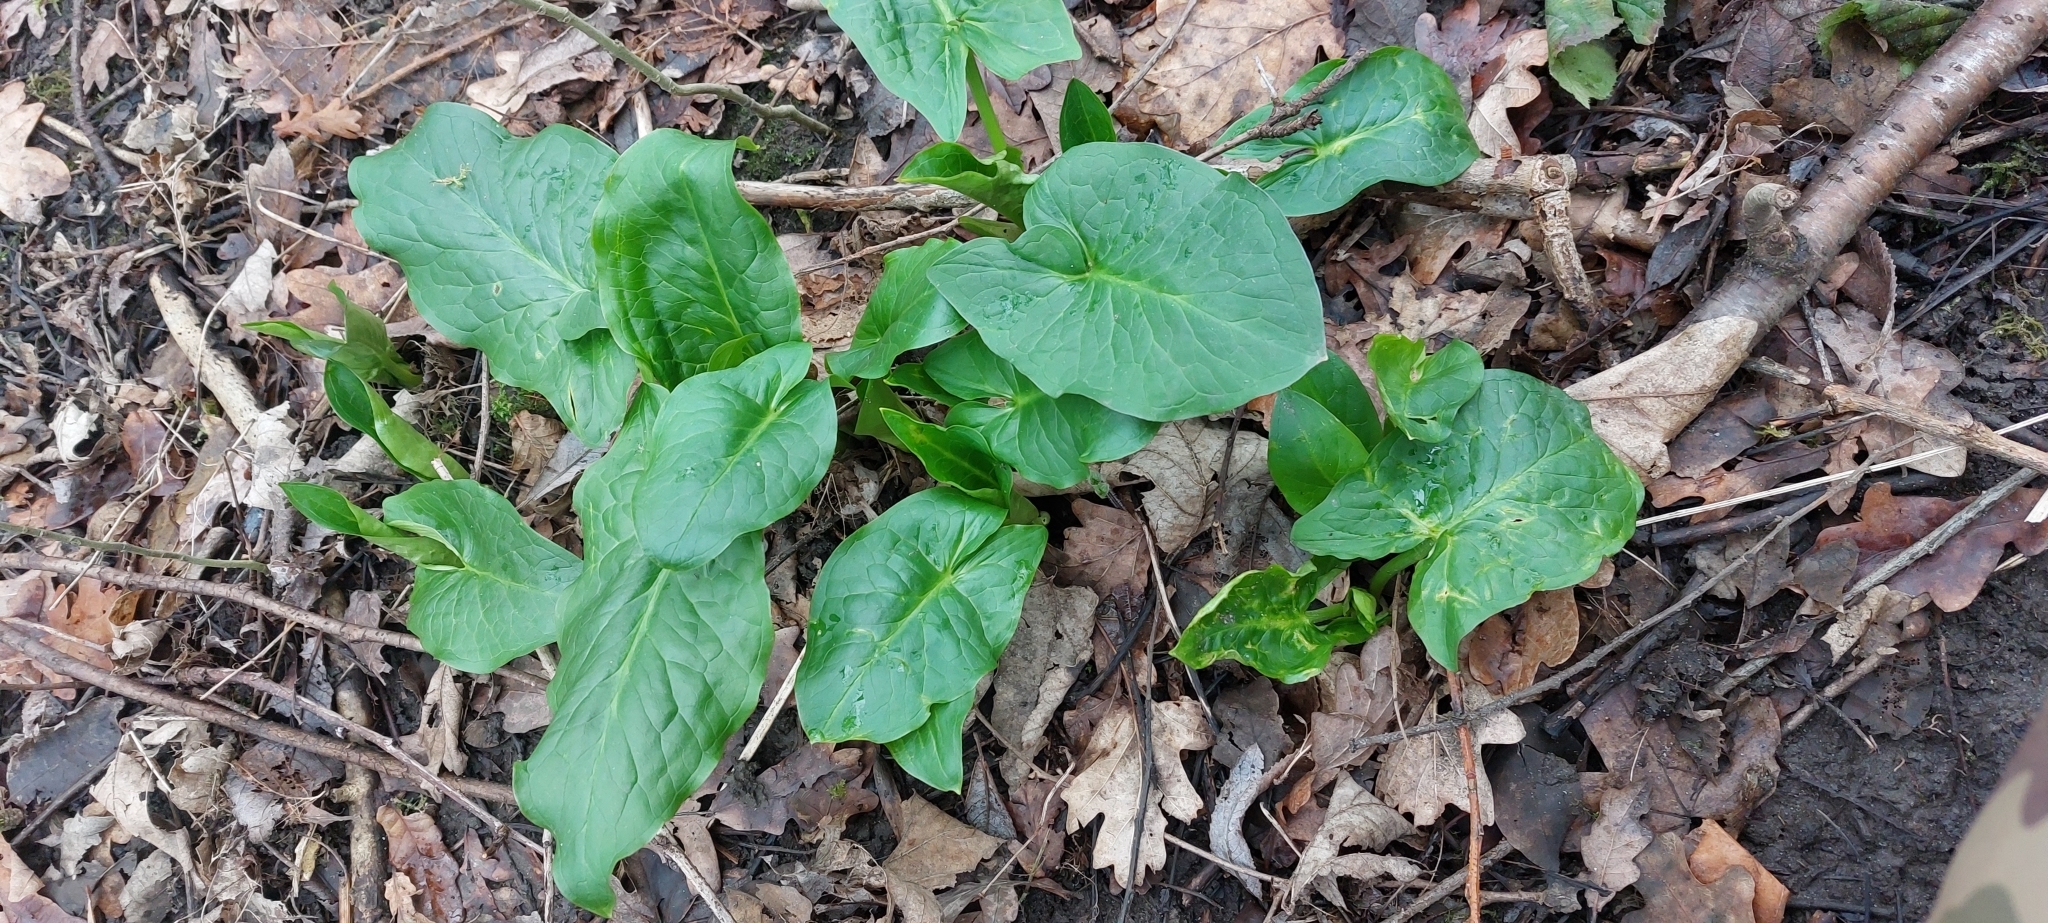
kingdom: Plantae
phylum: Tracheophyta
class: Liliopsida
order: Alismatales
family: Araceae
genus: Arum
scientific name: Arum maculatum
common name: Lords-and-ladies
